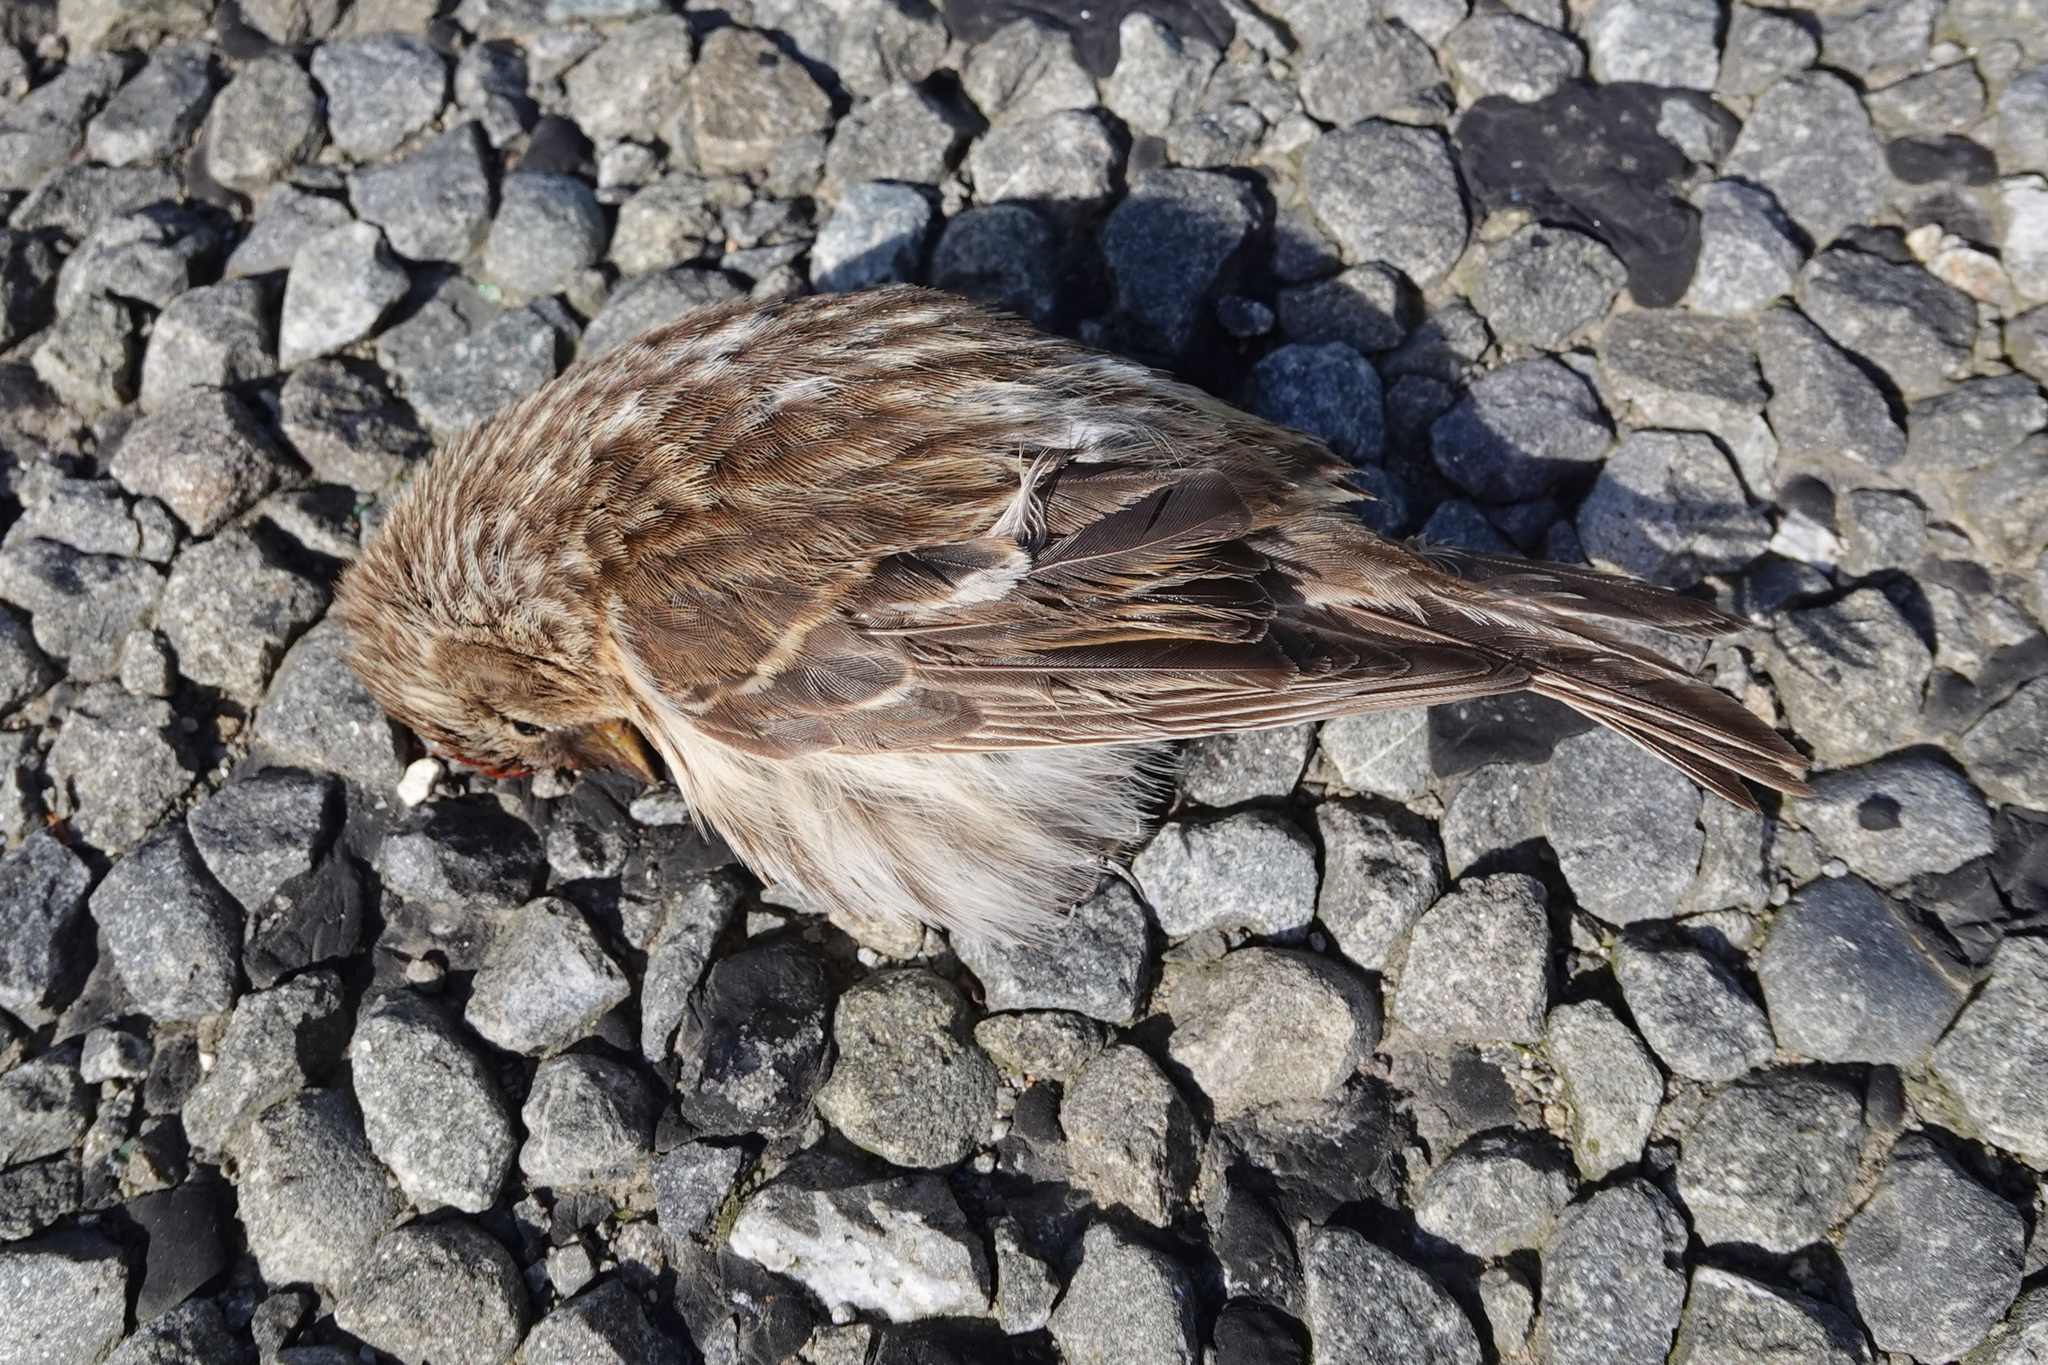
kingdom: Animalia
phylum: Chordata
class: Aves
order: Passeriformes
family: Fringillidae
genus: Acanthis
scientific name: Acanthis flammea
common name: Common redpoll
